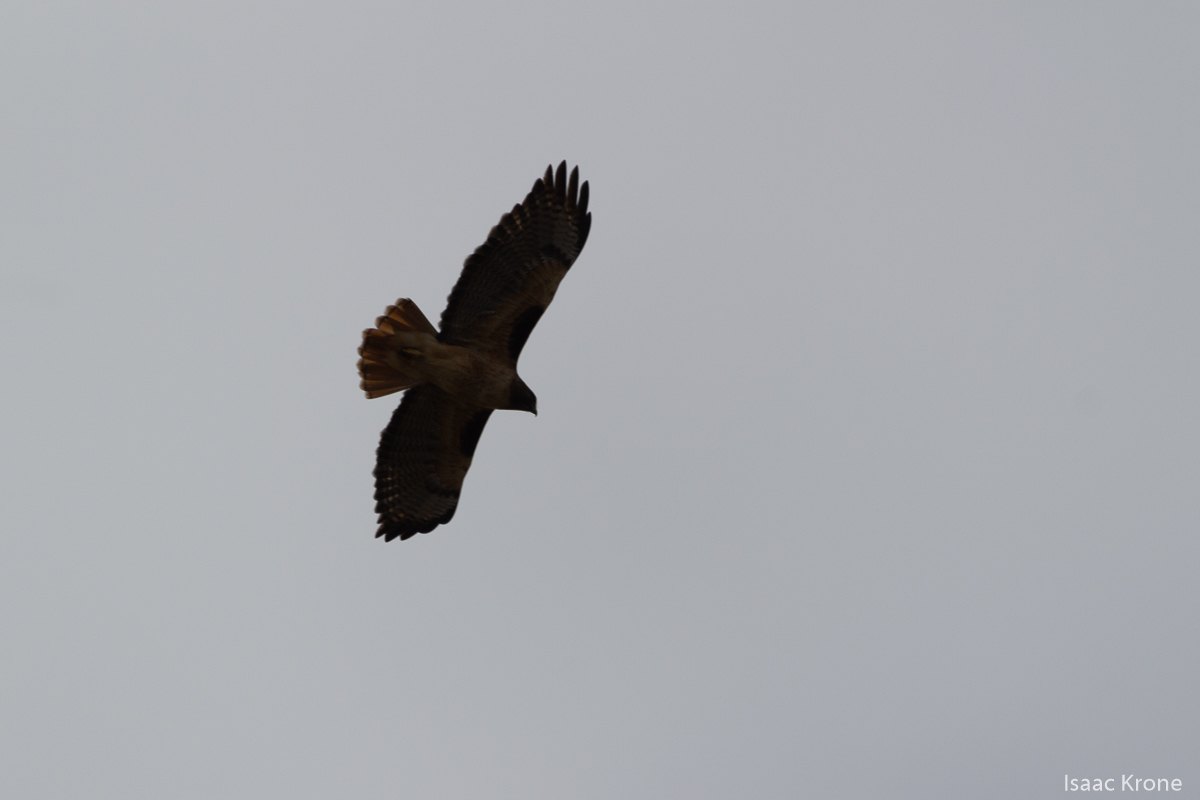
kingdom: Animalia
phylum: Chordata
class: Aves
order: Accipitriformes
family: Accipitridae
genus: Buteo
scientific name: Buteo jamaicensis
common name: Red-tailed hawk
